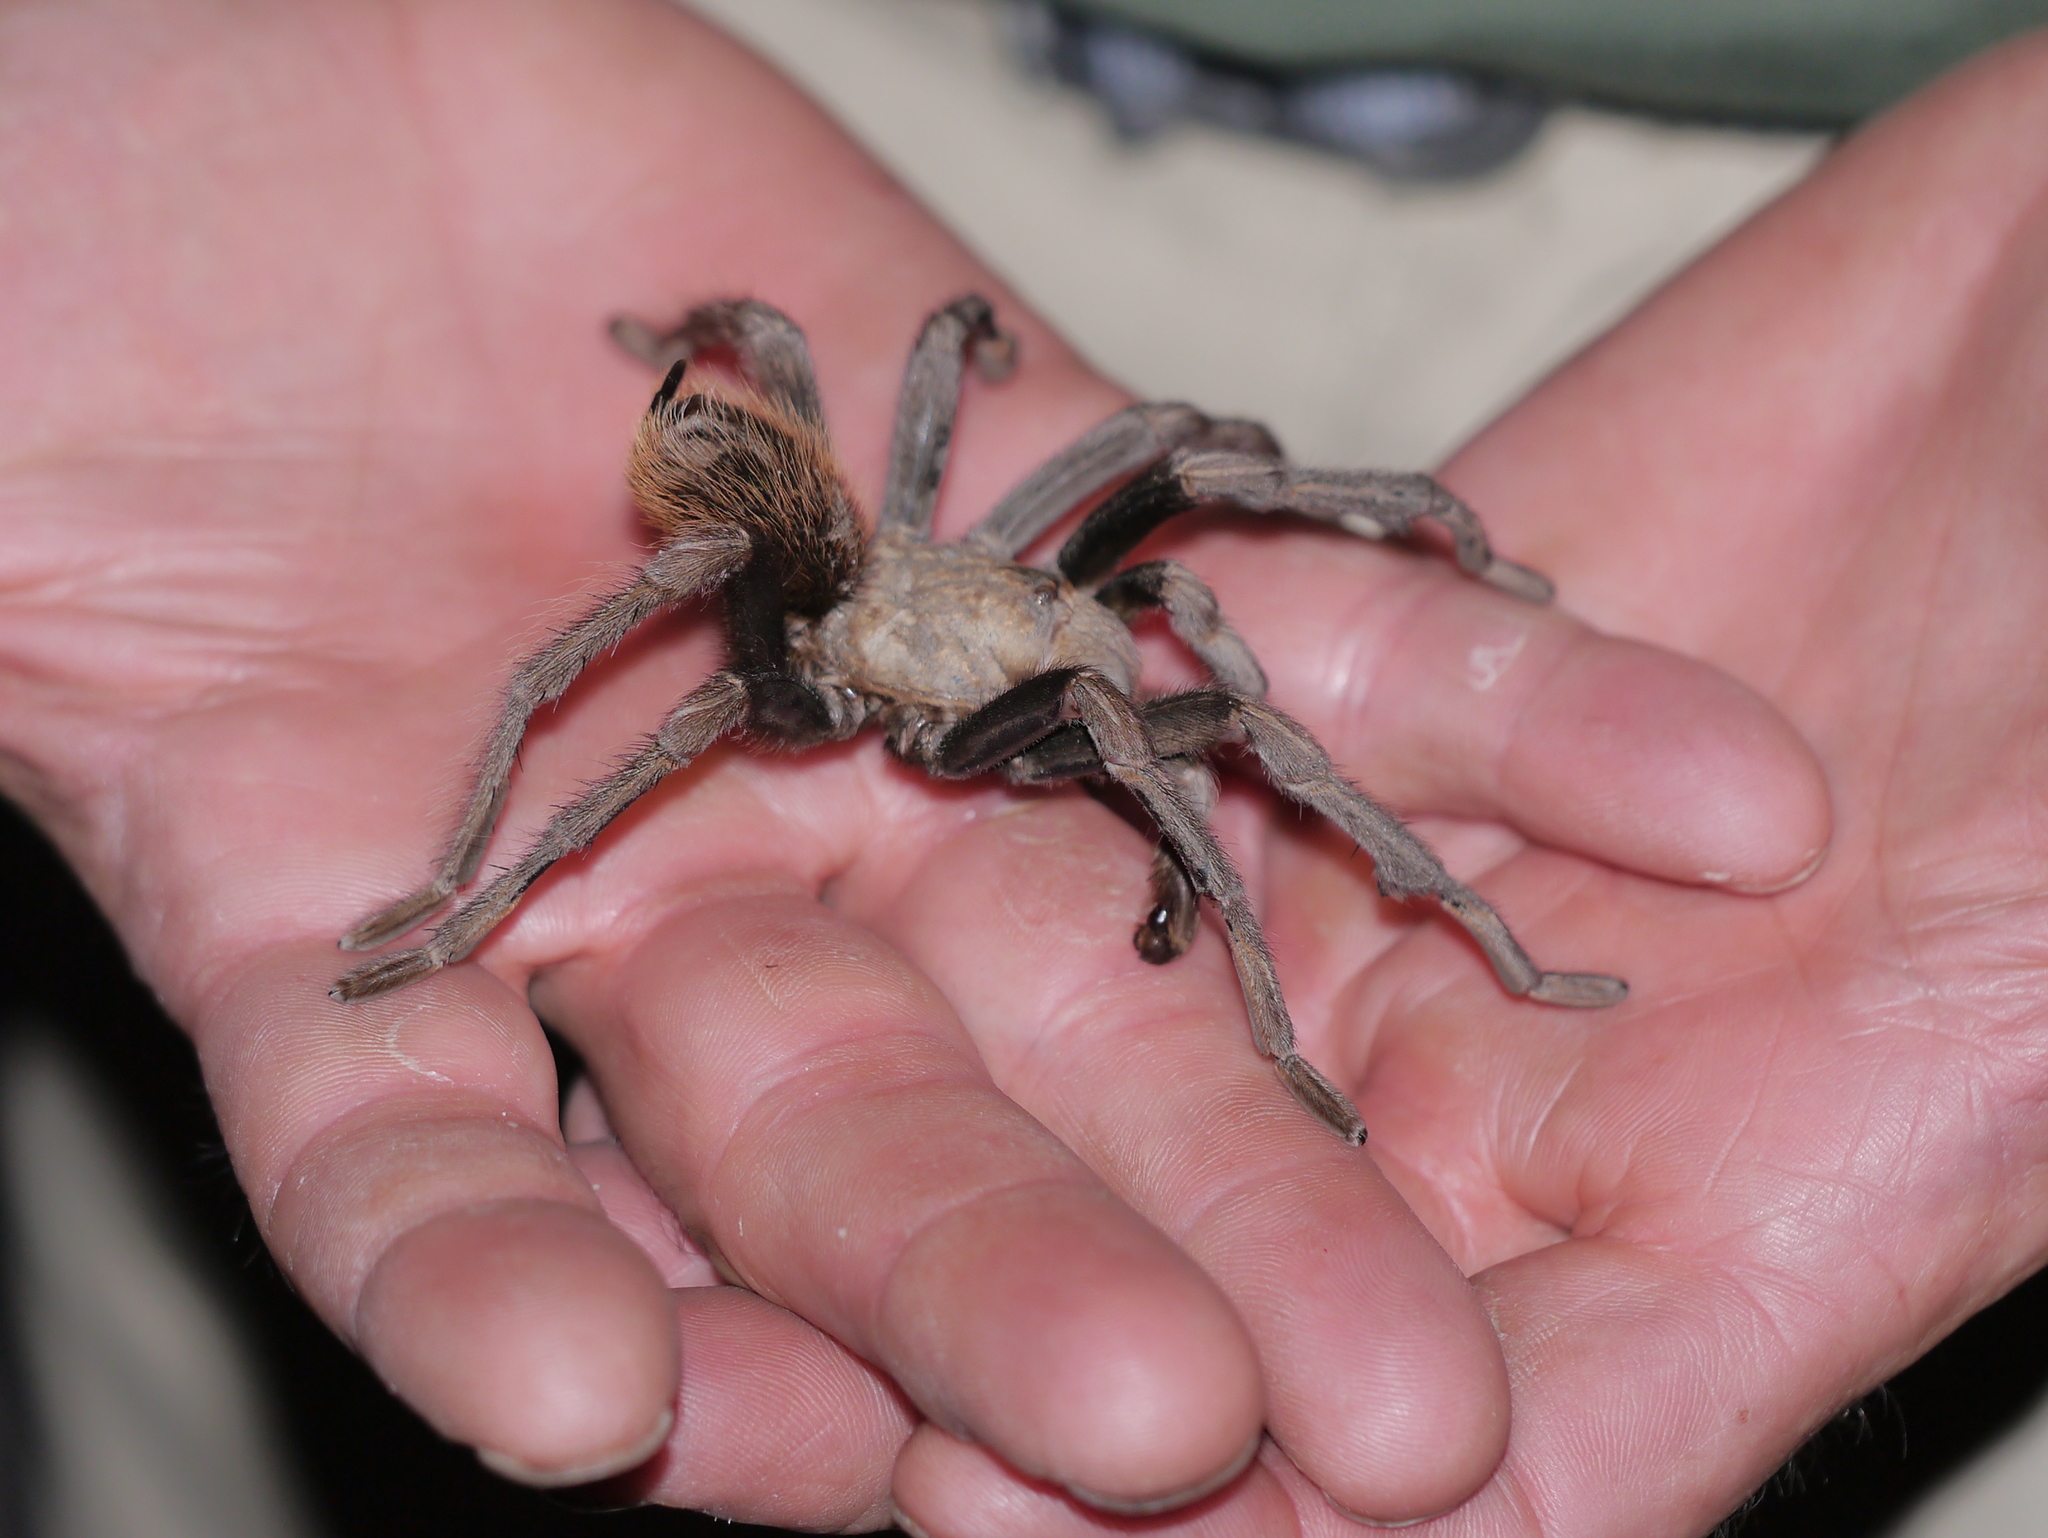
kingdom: Animalia
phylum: Arthropoda
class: Arachnida
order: Araneae
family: Theraphosidae
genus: Aphonopelma
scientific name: Aphonopelma chalcodes
